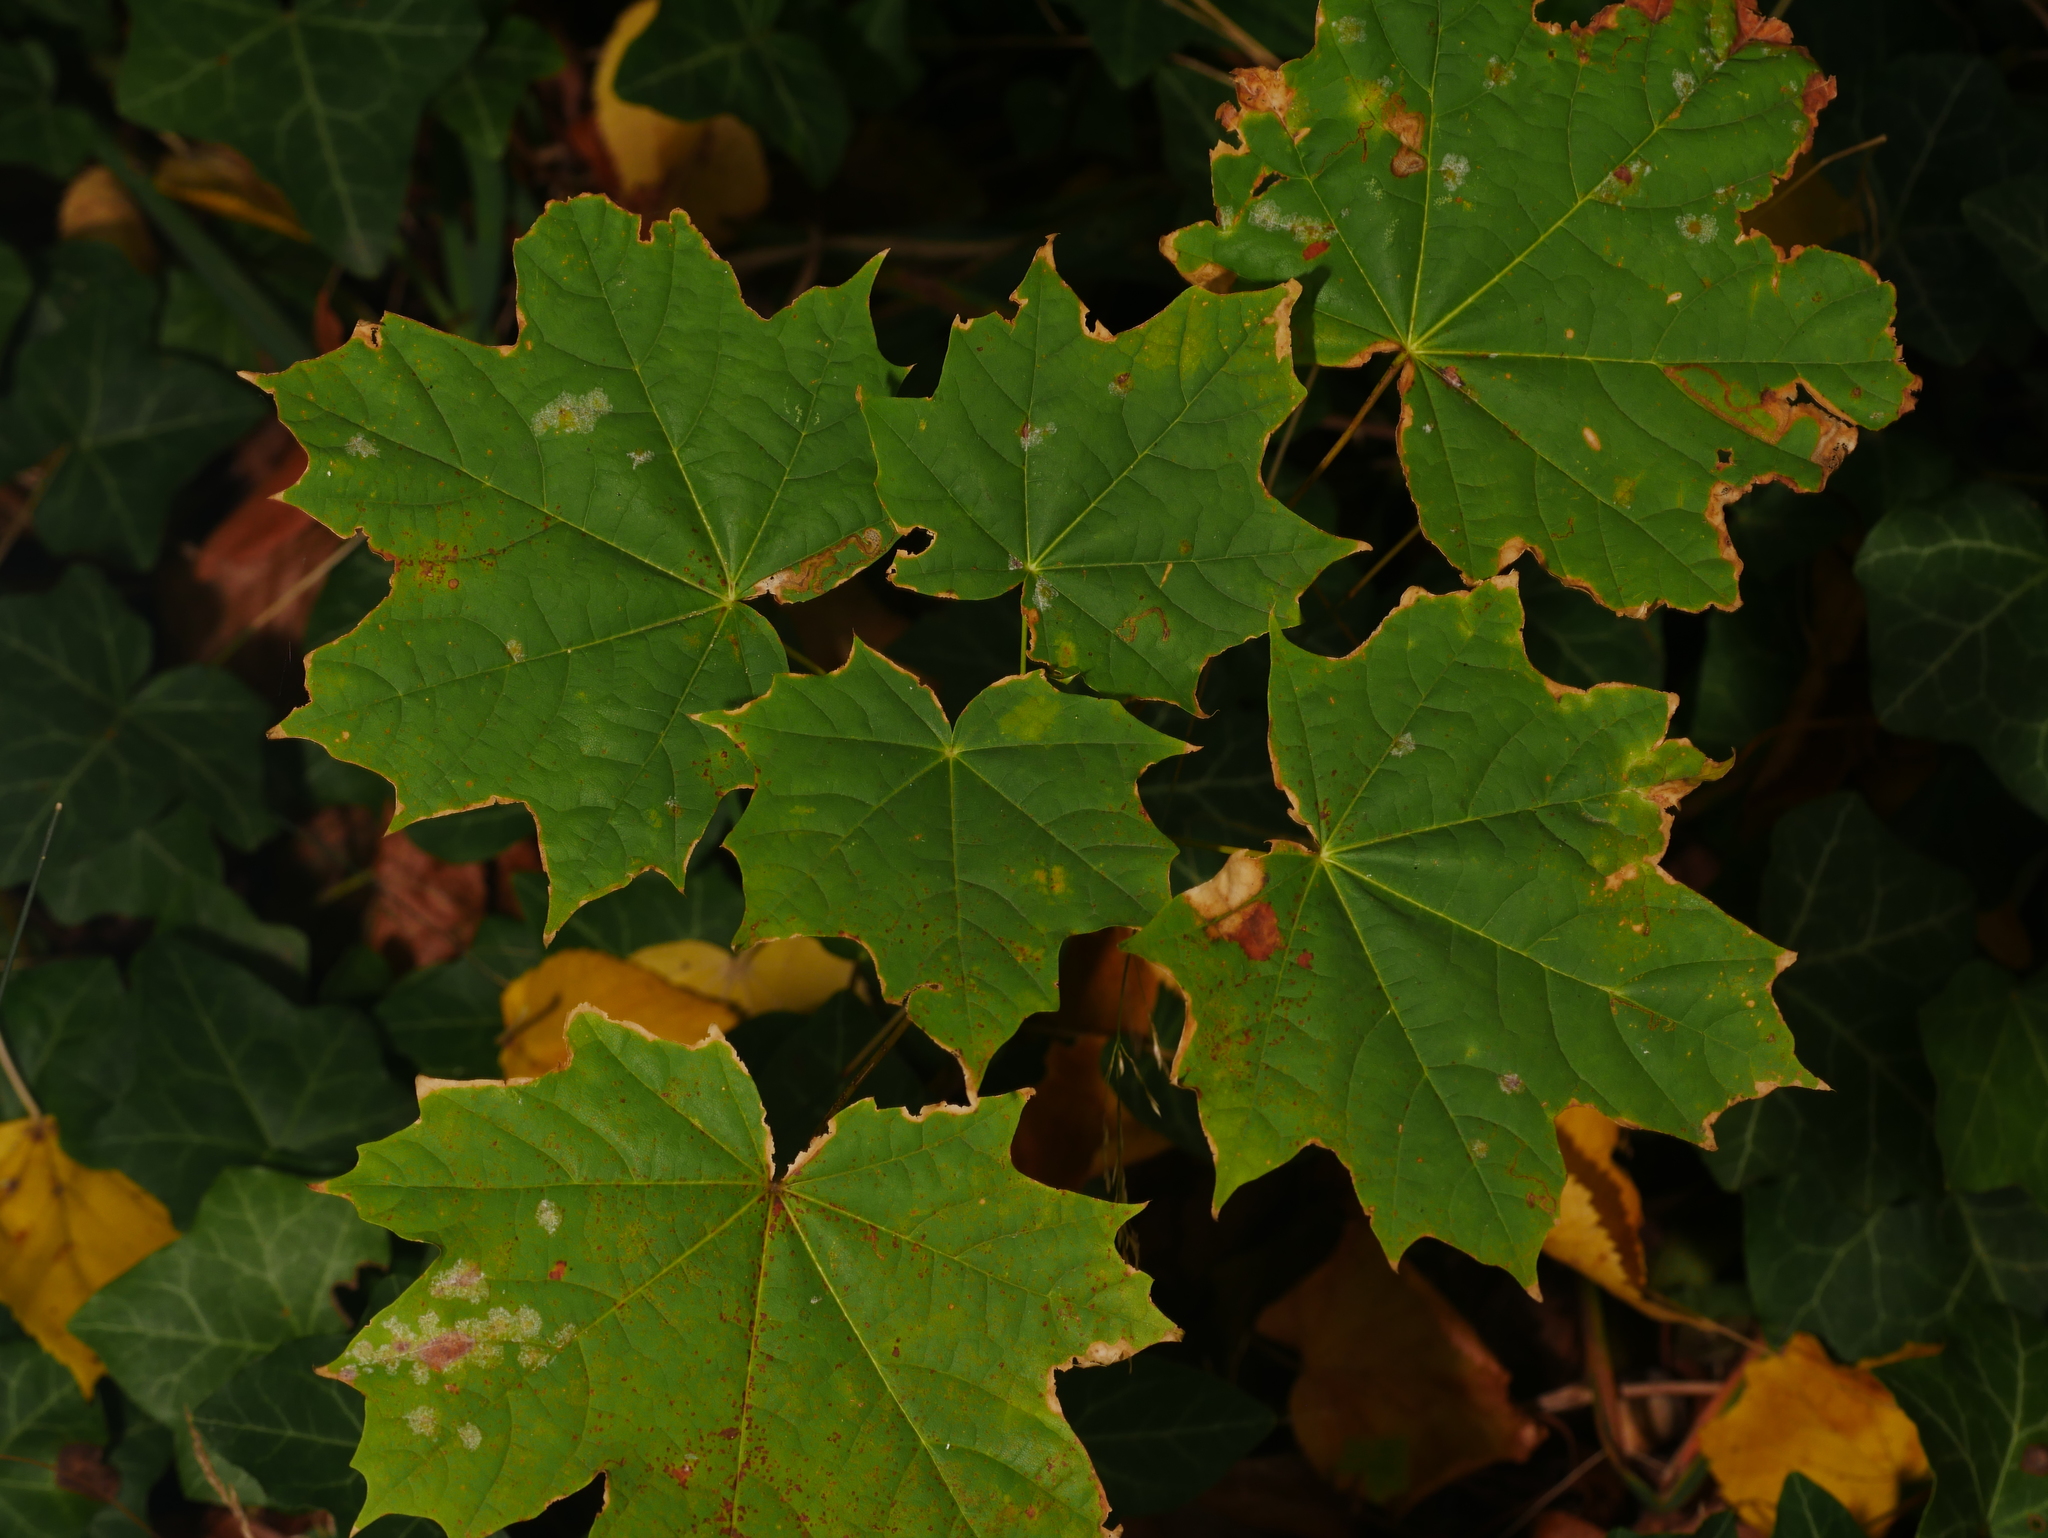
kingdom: Plantae
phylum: Tracheophyta
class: Magnoliopsida
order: Sapindales
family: Sapindaceae
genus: Acer
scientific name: Acer platanoides
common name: Norway maple
